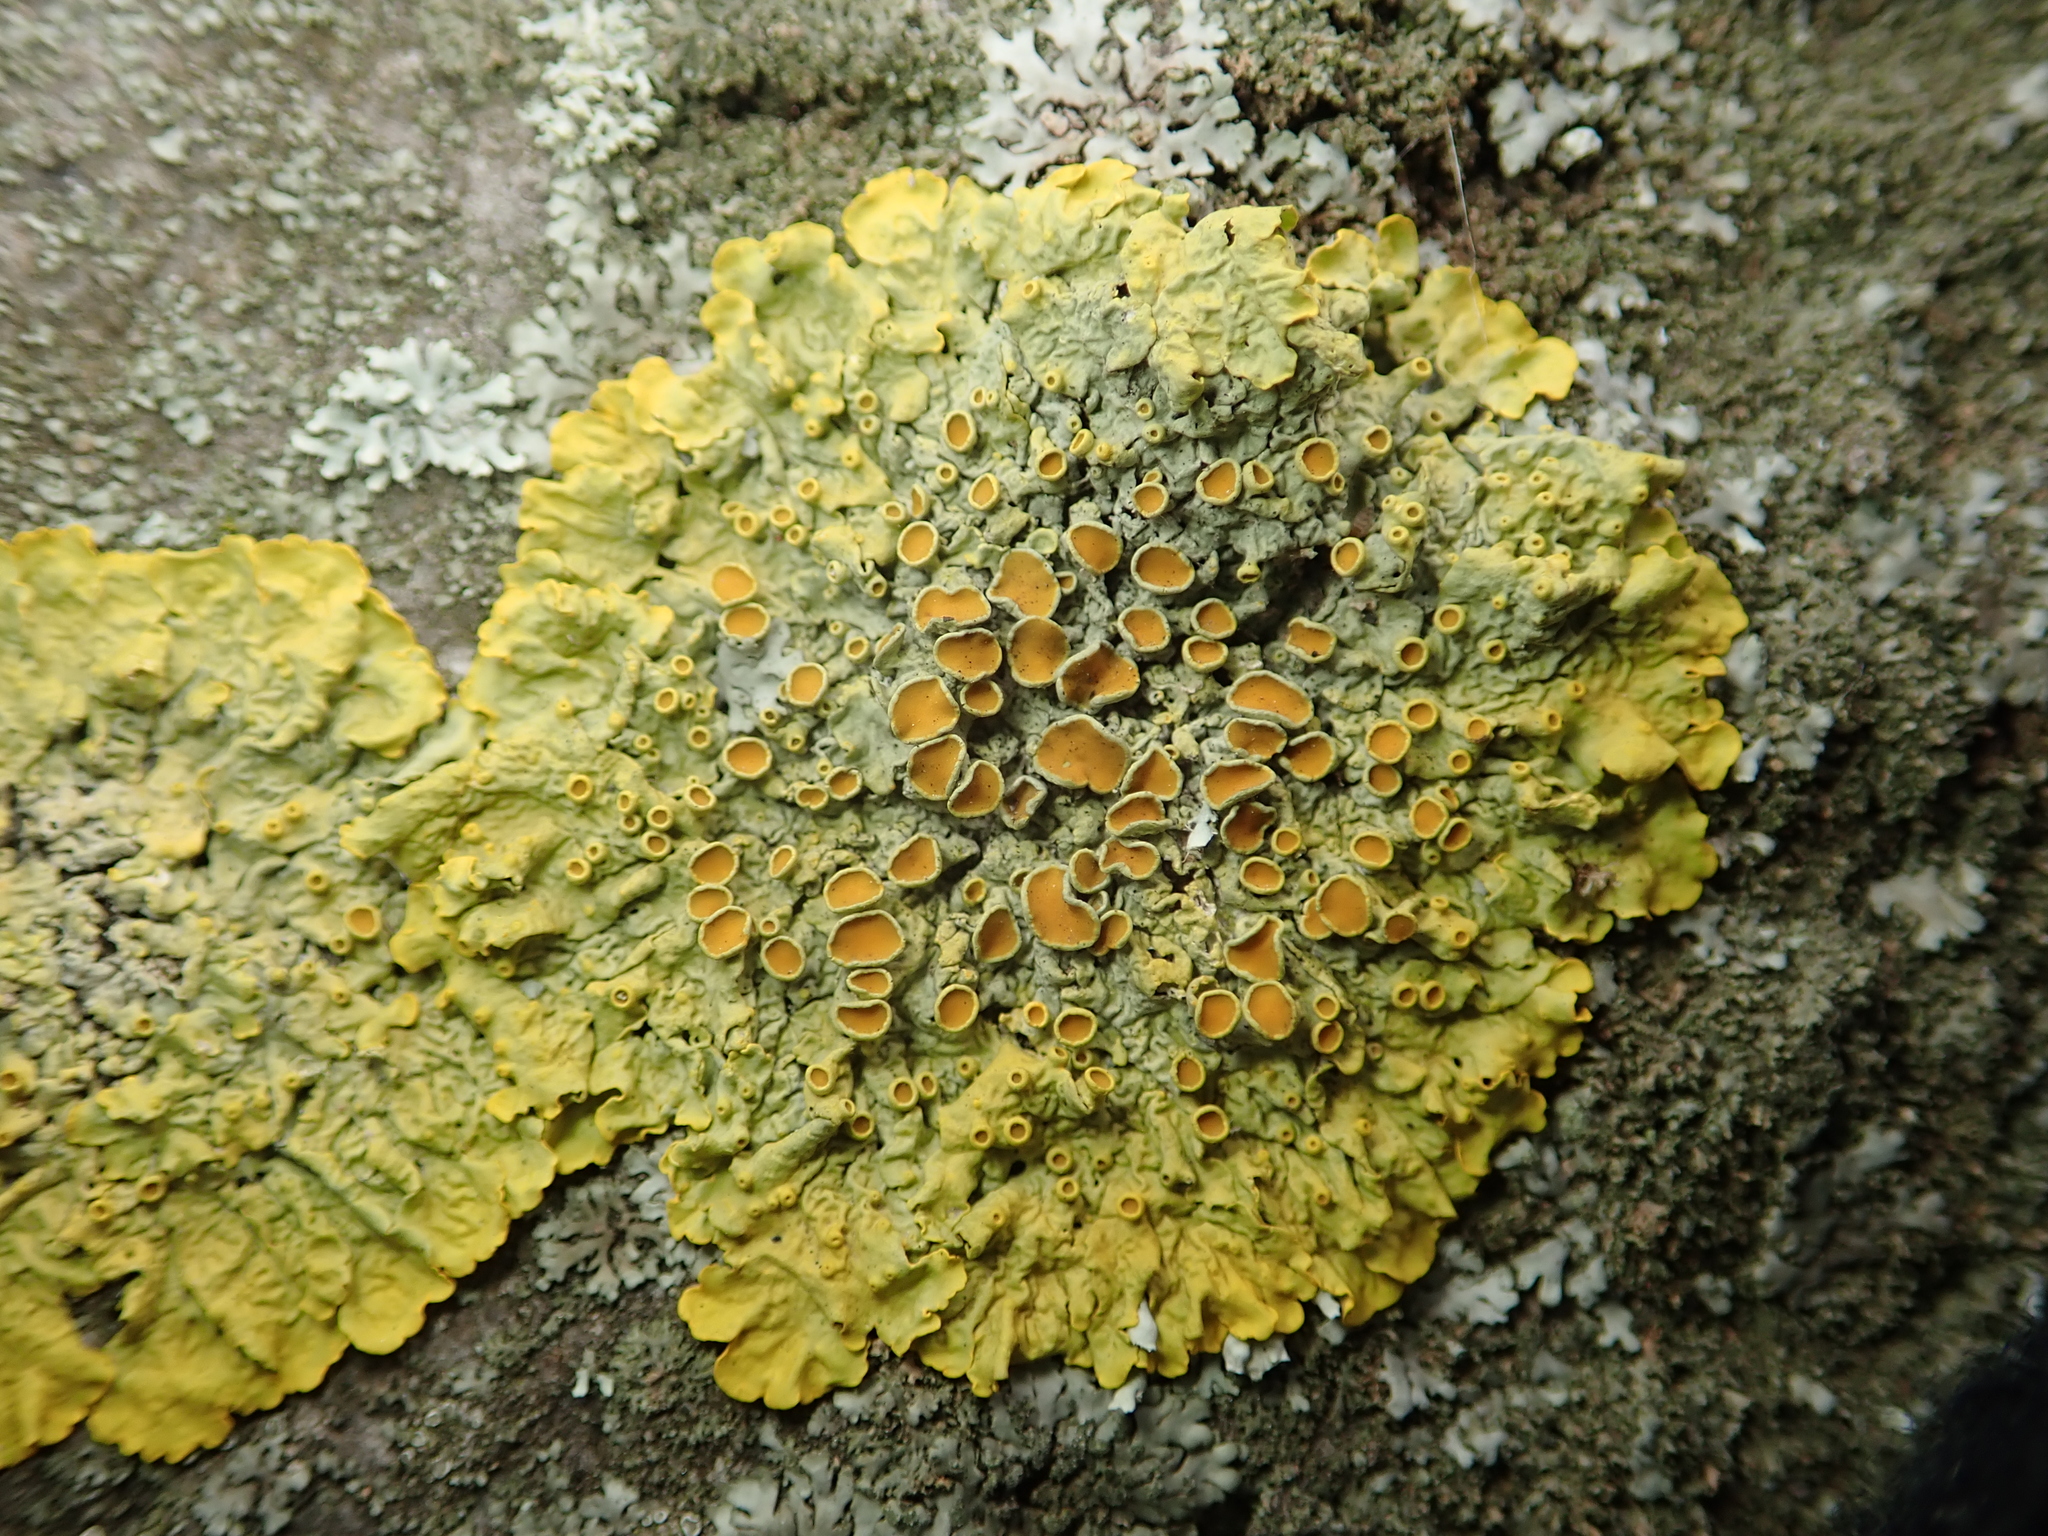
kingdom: Fungi
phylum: Ascomycota
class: Lecanoromycetes
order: Teloschistales
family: Teloschistaceae
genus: Xanthoria
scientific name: Xanthoria parietina
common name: Common orange lichen
